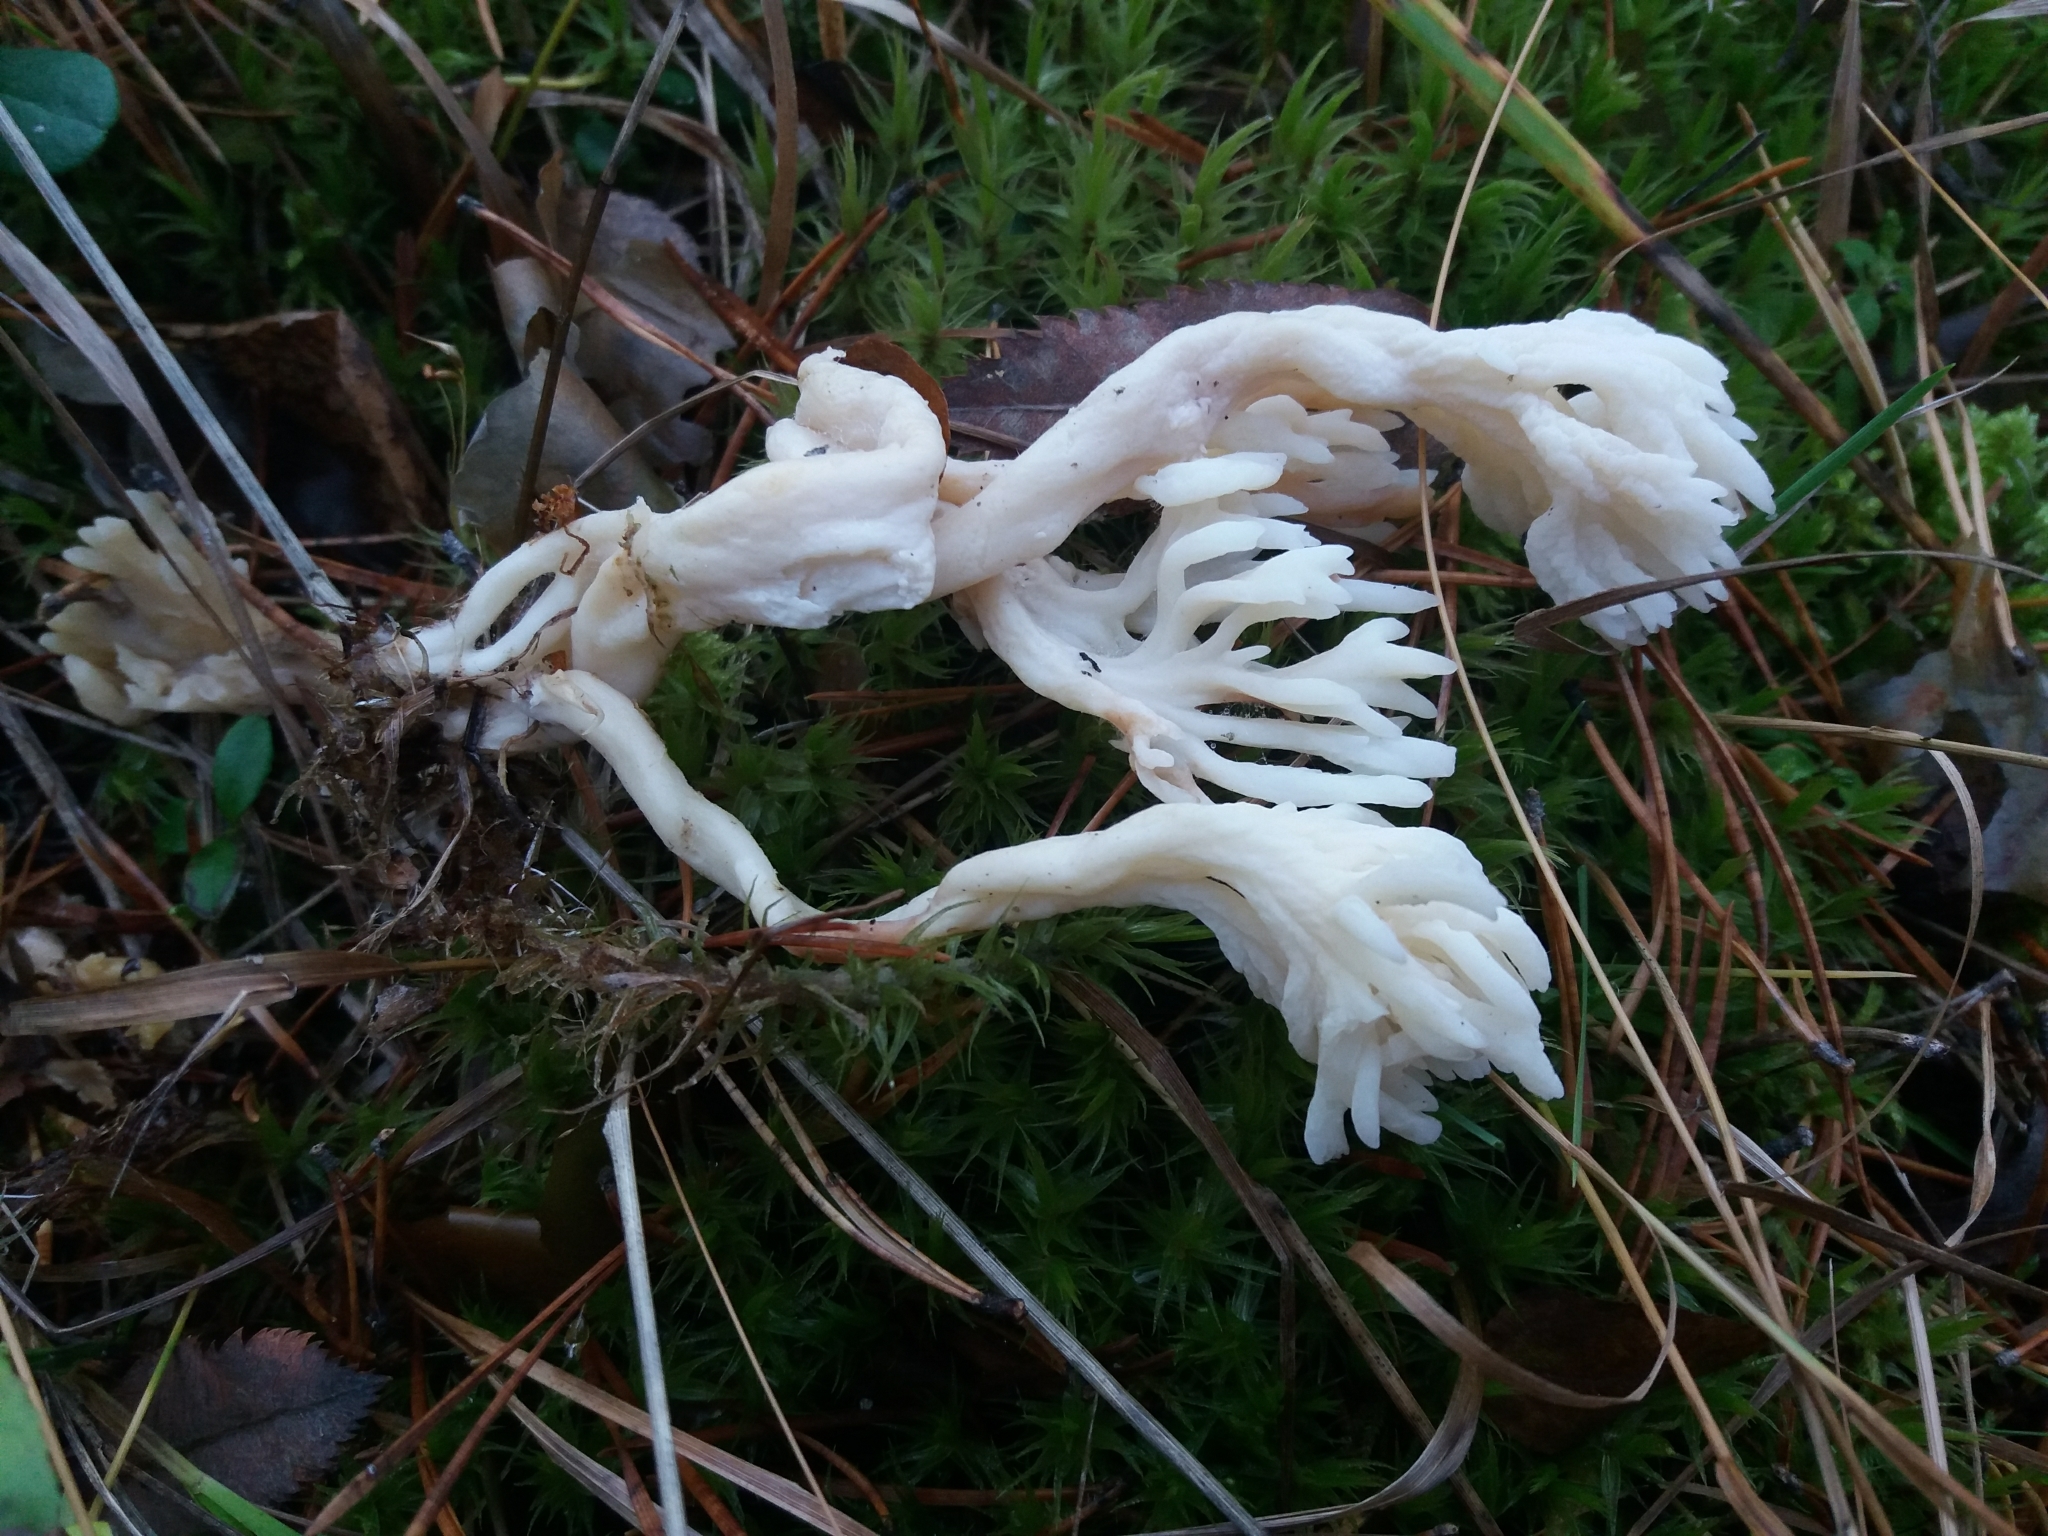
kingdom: Fungi
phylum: Basidiomycota
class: Agaricomycetes
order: Cantharellales
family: Hydnaceae
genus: Clavulina
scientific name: Clavulina coralloides
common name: Crested coral
